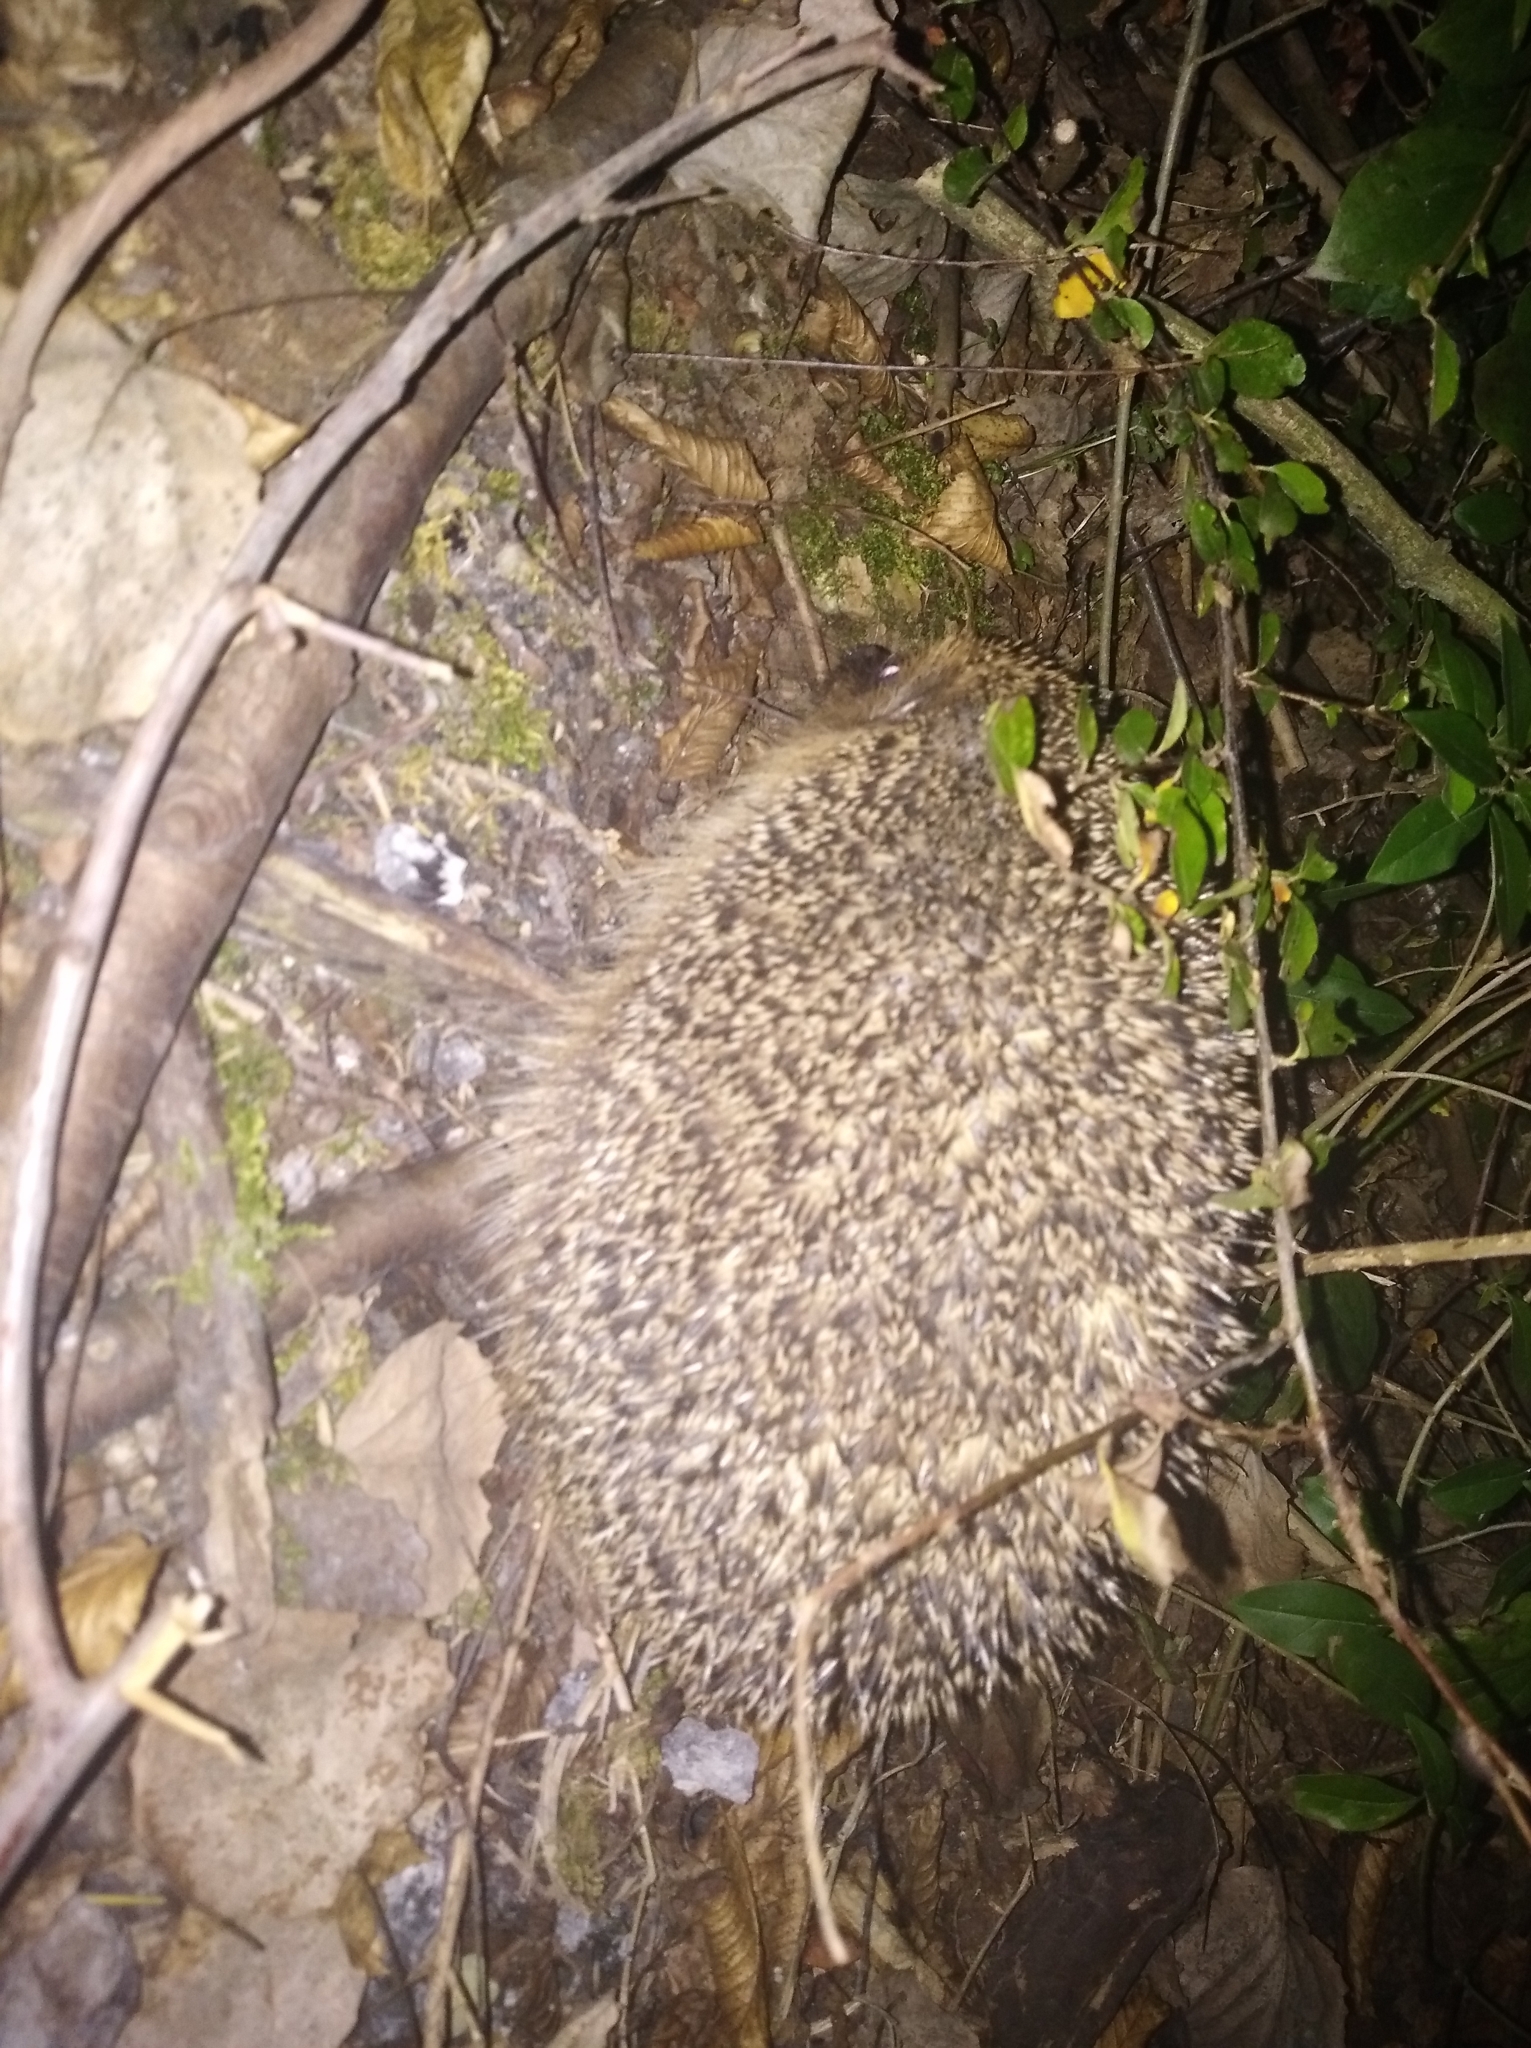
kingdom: Animalia
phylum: Chordata
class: Mammalia
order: Erinaceomorpha
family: Erinaceidae
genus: Erinaceus
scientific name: Erinaceus europaeus
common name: West european hedgehog
